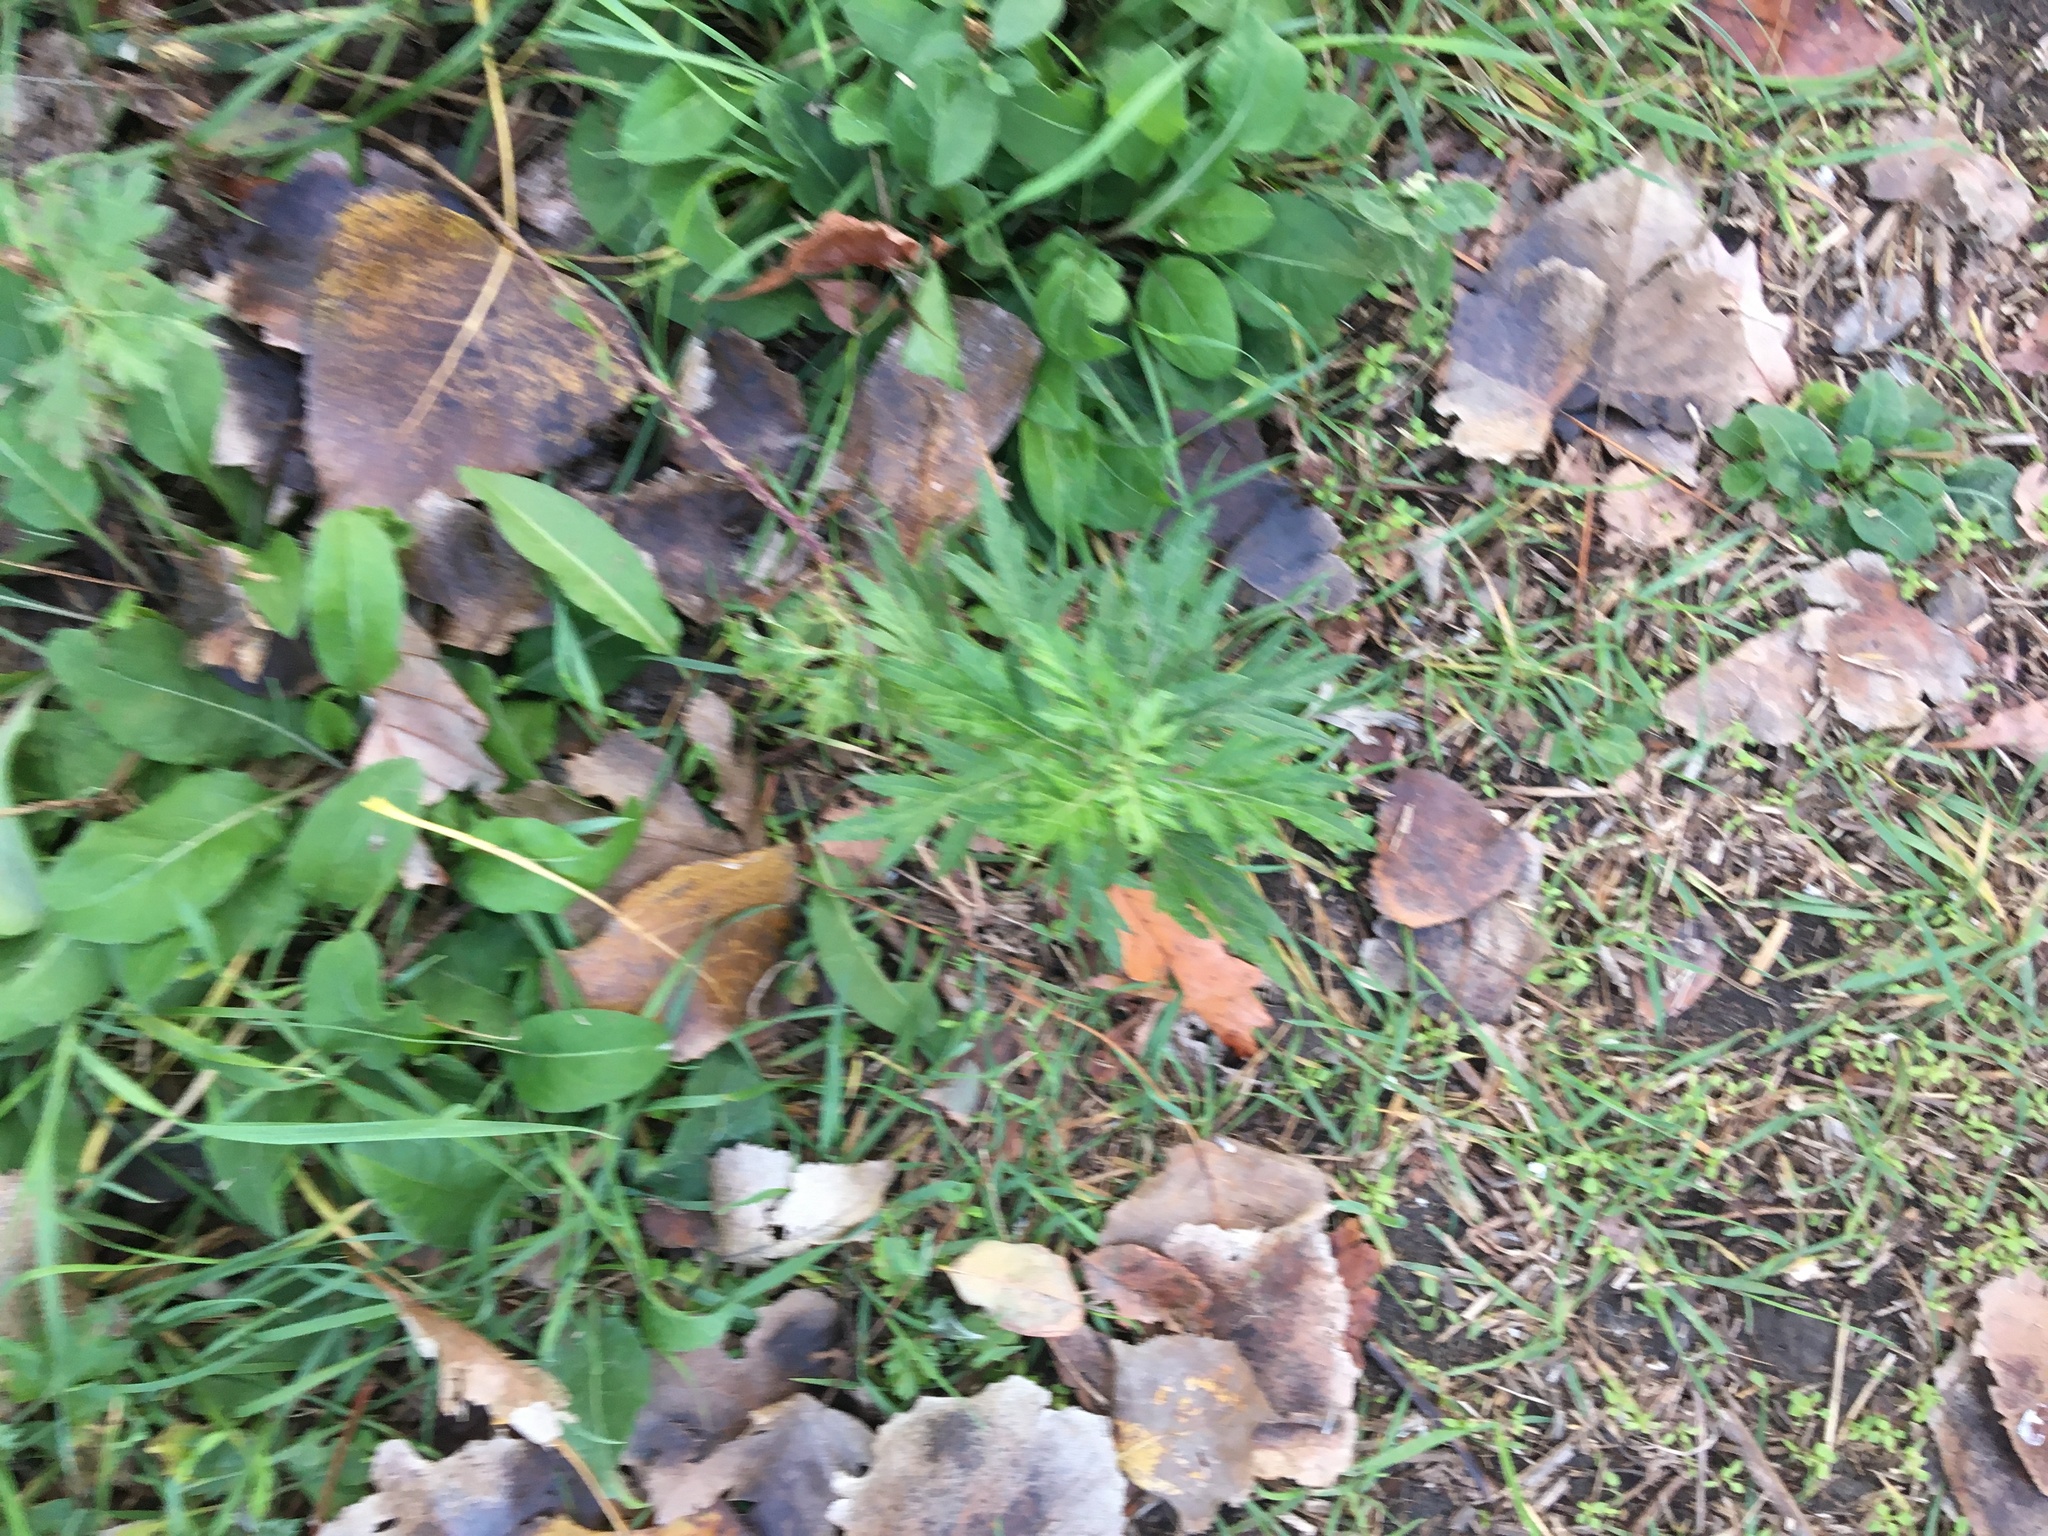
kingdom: Plantae
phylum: Tracheophyta
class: Magnoliopsida
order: Asterales
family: Asteraceae
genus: Artemisia
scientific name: Artemisia vulgaris
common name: Mugwort
